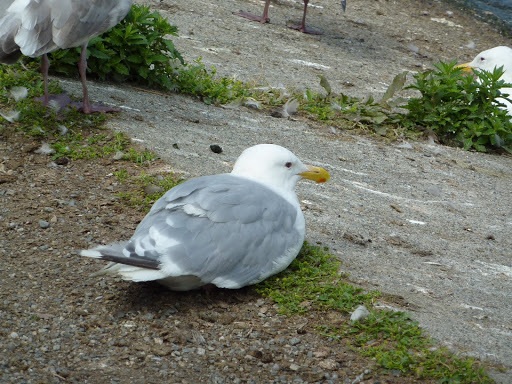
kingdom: Animalia
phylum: Chordata
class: Aves
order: Charadriiformes
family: Laridae
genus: Larus
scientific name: Larus
